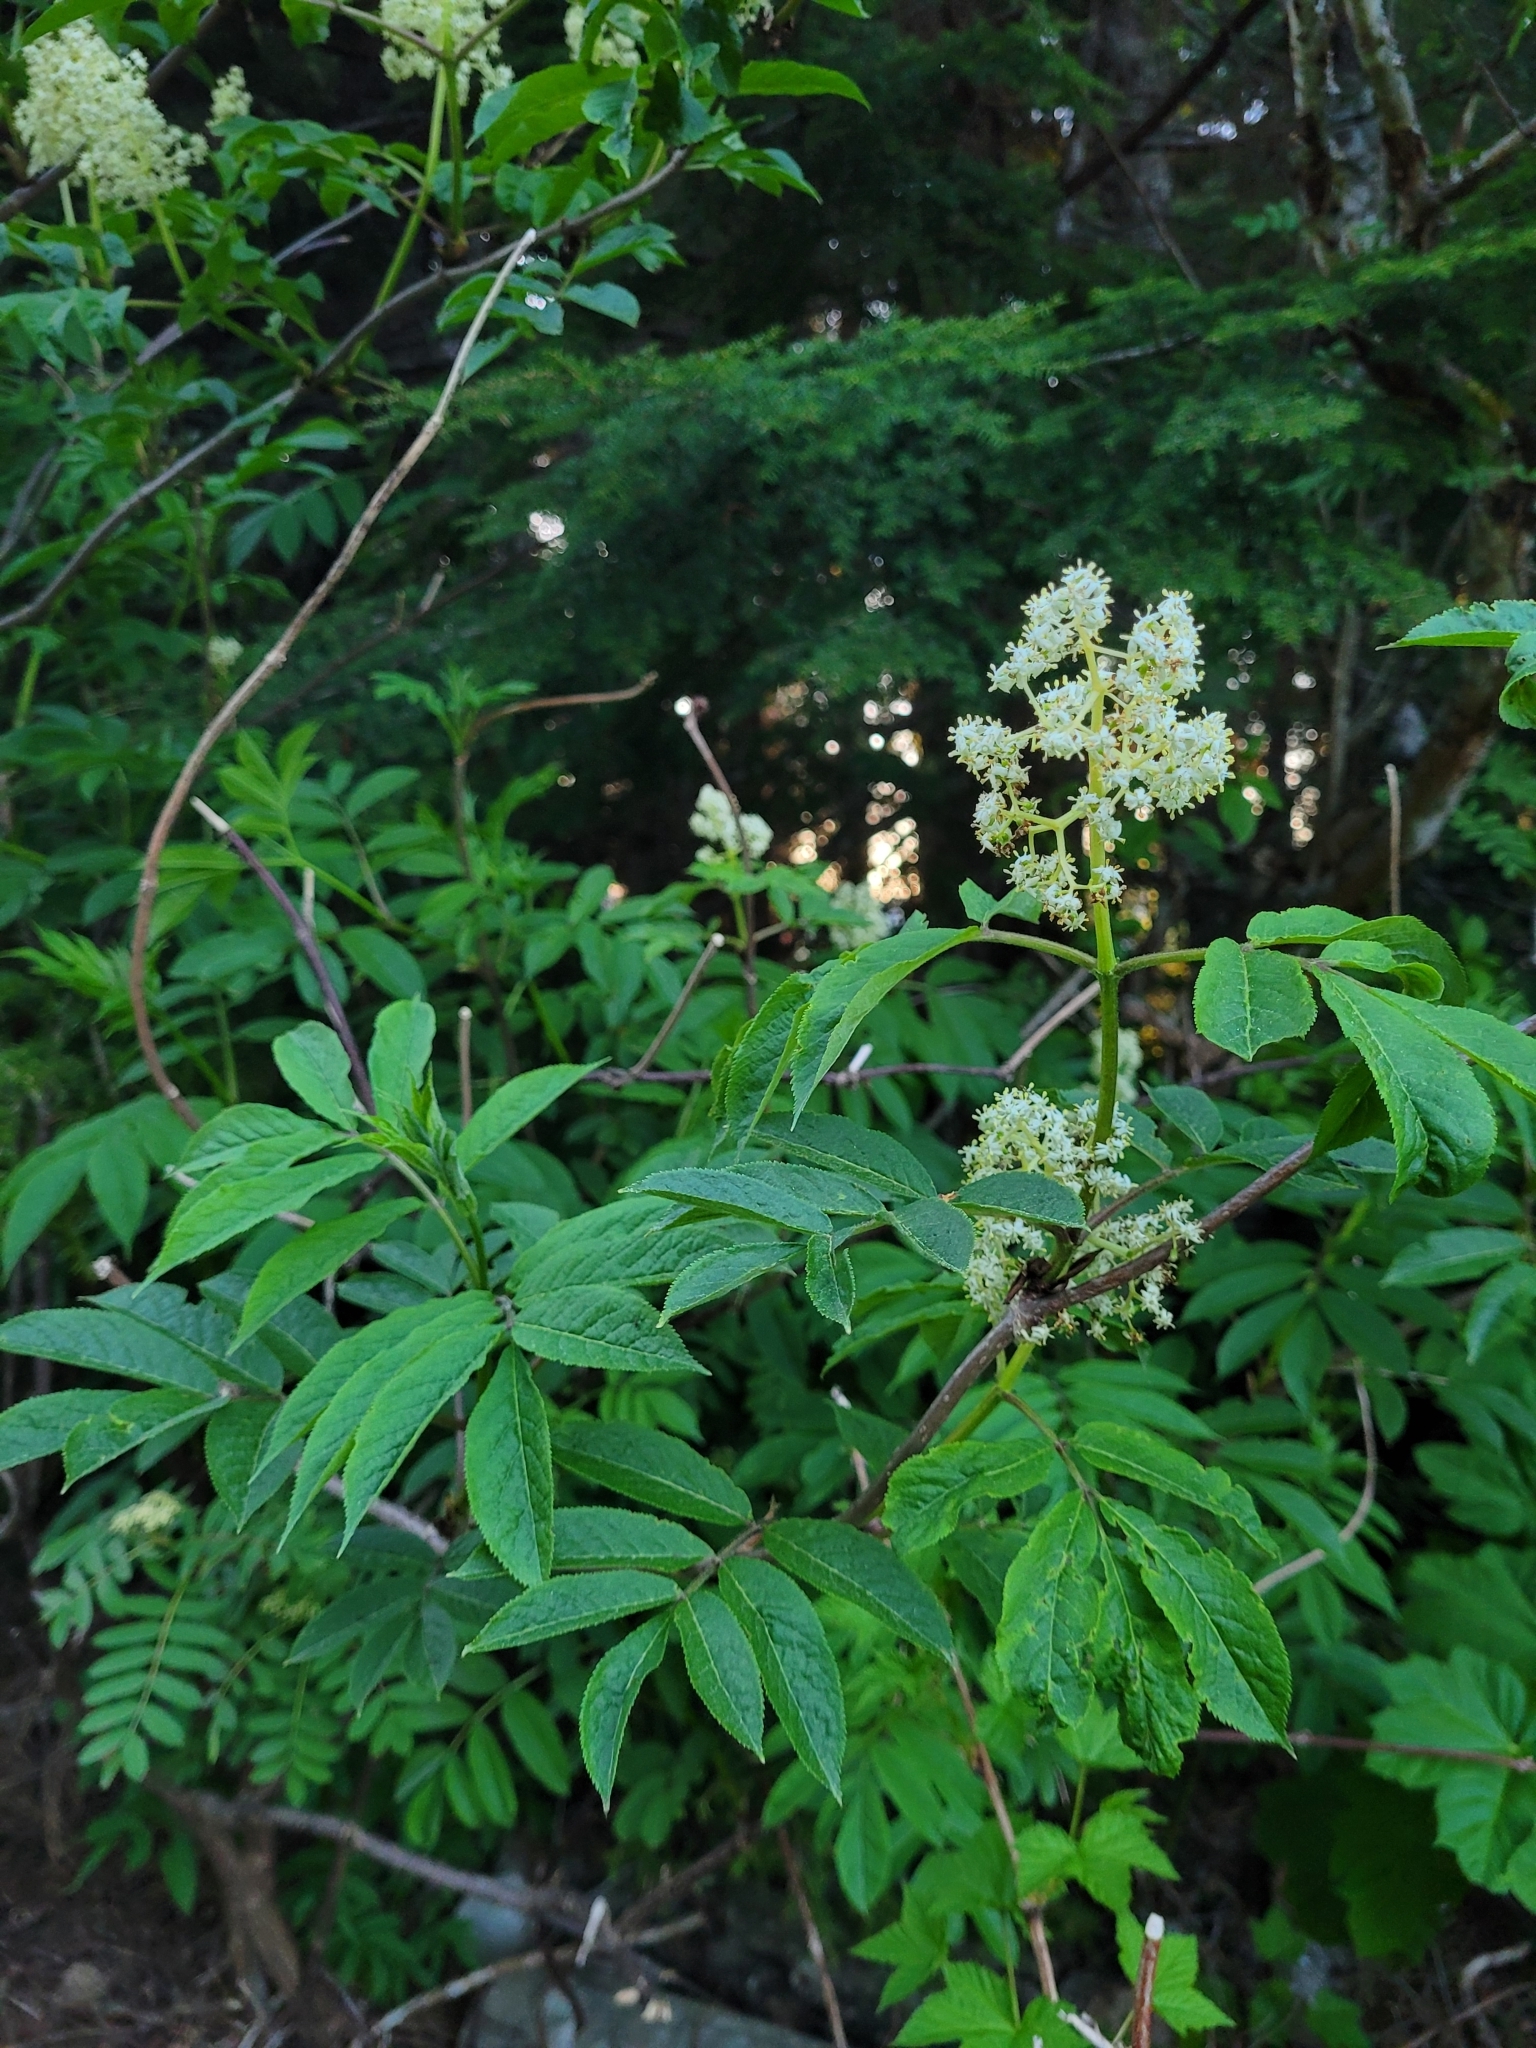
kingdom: Plantae
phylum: Tracheophyta
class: Magnoliopsida
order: Dipsacales
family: Viburnaceae
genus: Sambucus
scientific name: Sambucus racemosa
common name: Red-berried elder
